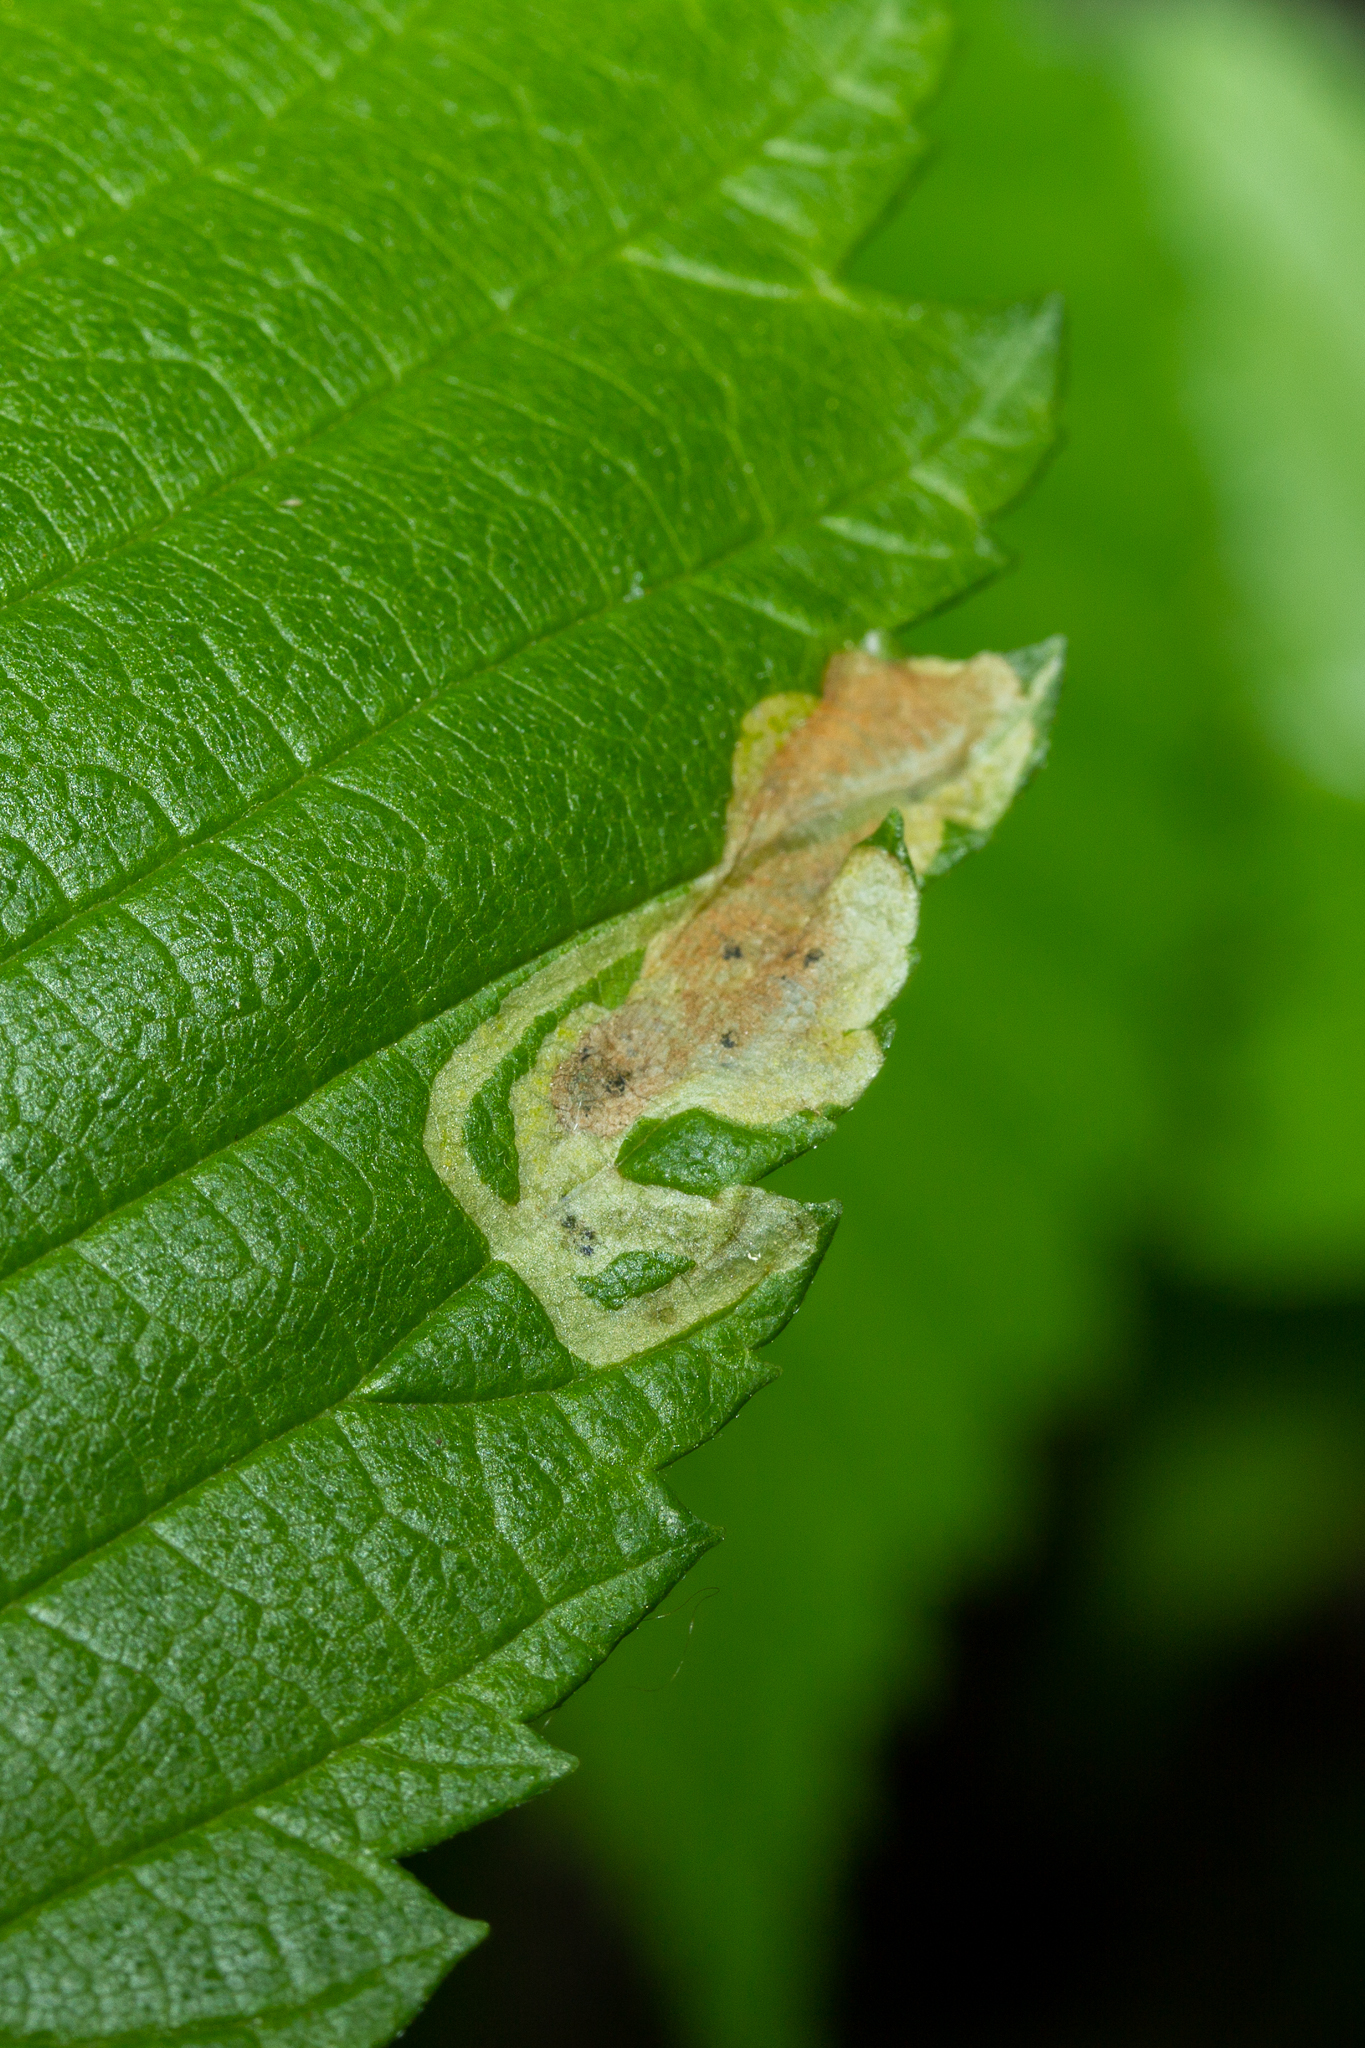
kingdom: Animalia
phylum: Arthropoda
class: Insecta
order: Diptera
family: Agromyzidae
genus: Agromyza
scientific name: Agromyza aristata
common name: Elm agromyzid leafminer
